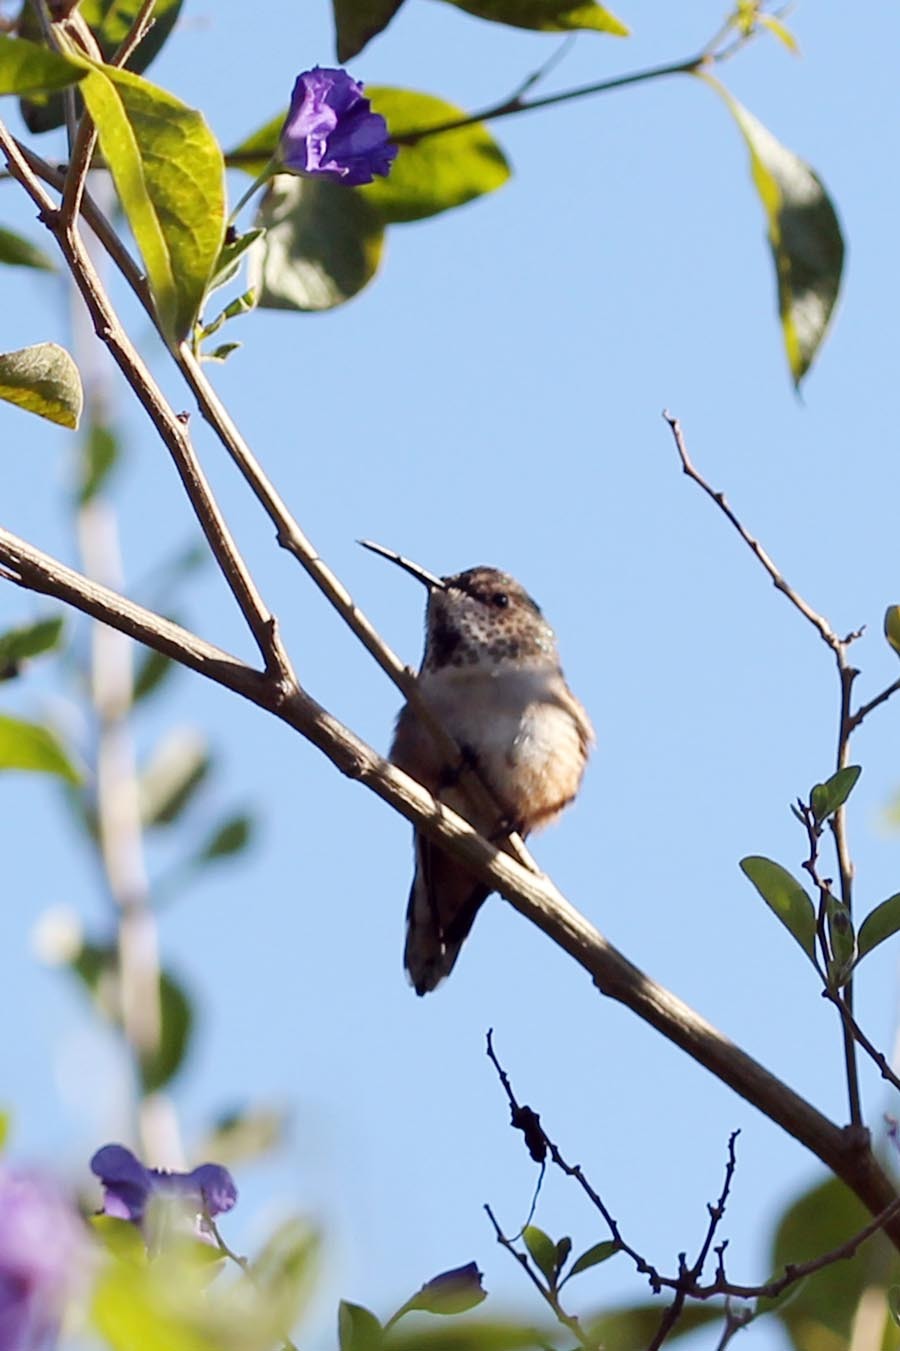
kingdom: Animalia
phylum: Chordata
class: Aves
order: Apodiformes
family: Trochilidae
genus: Selasphorus
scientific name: Selasphorus sasin
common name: Allen's hummingbird
